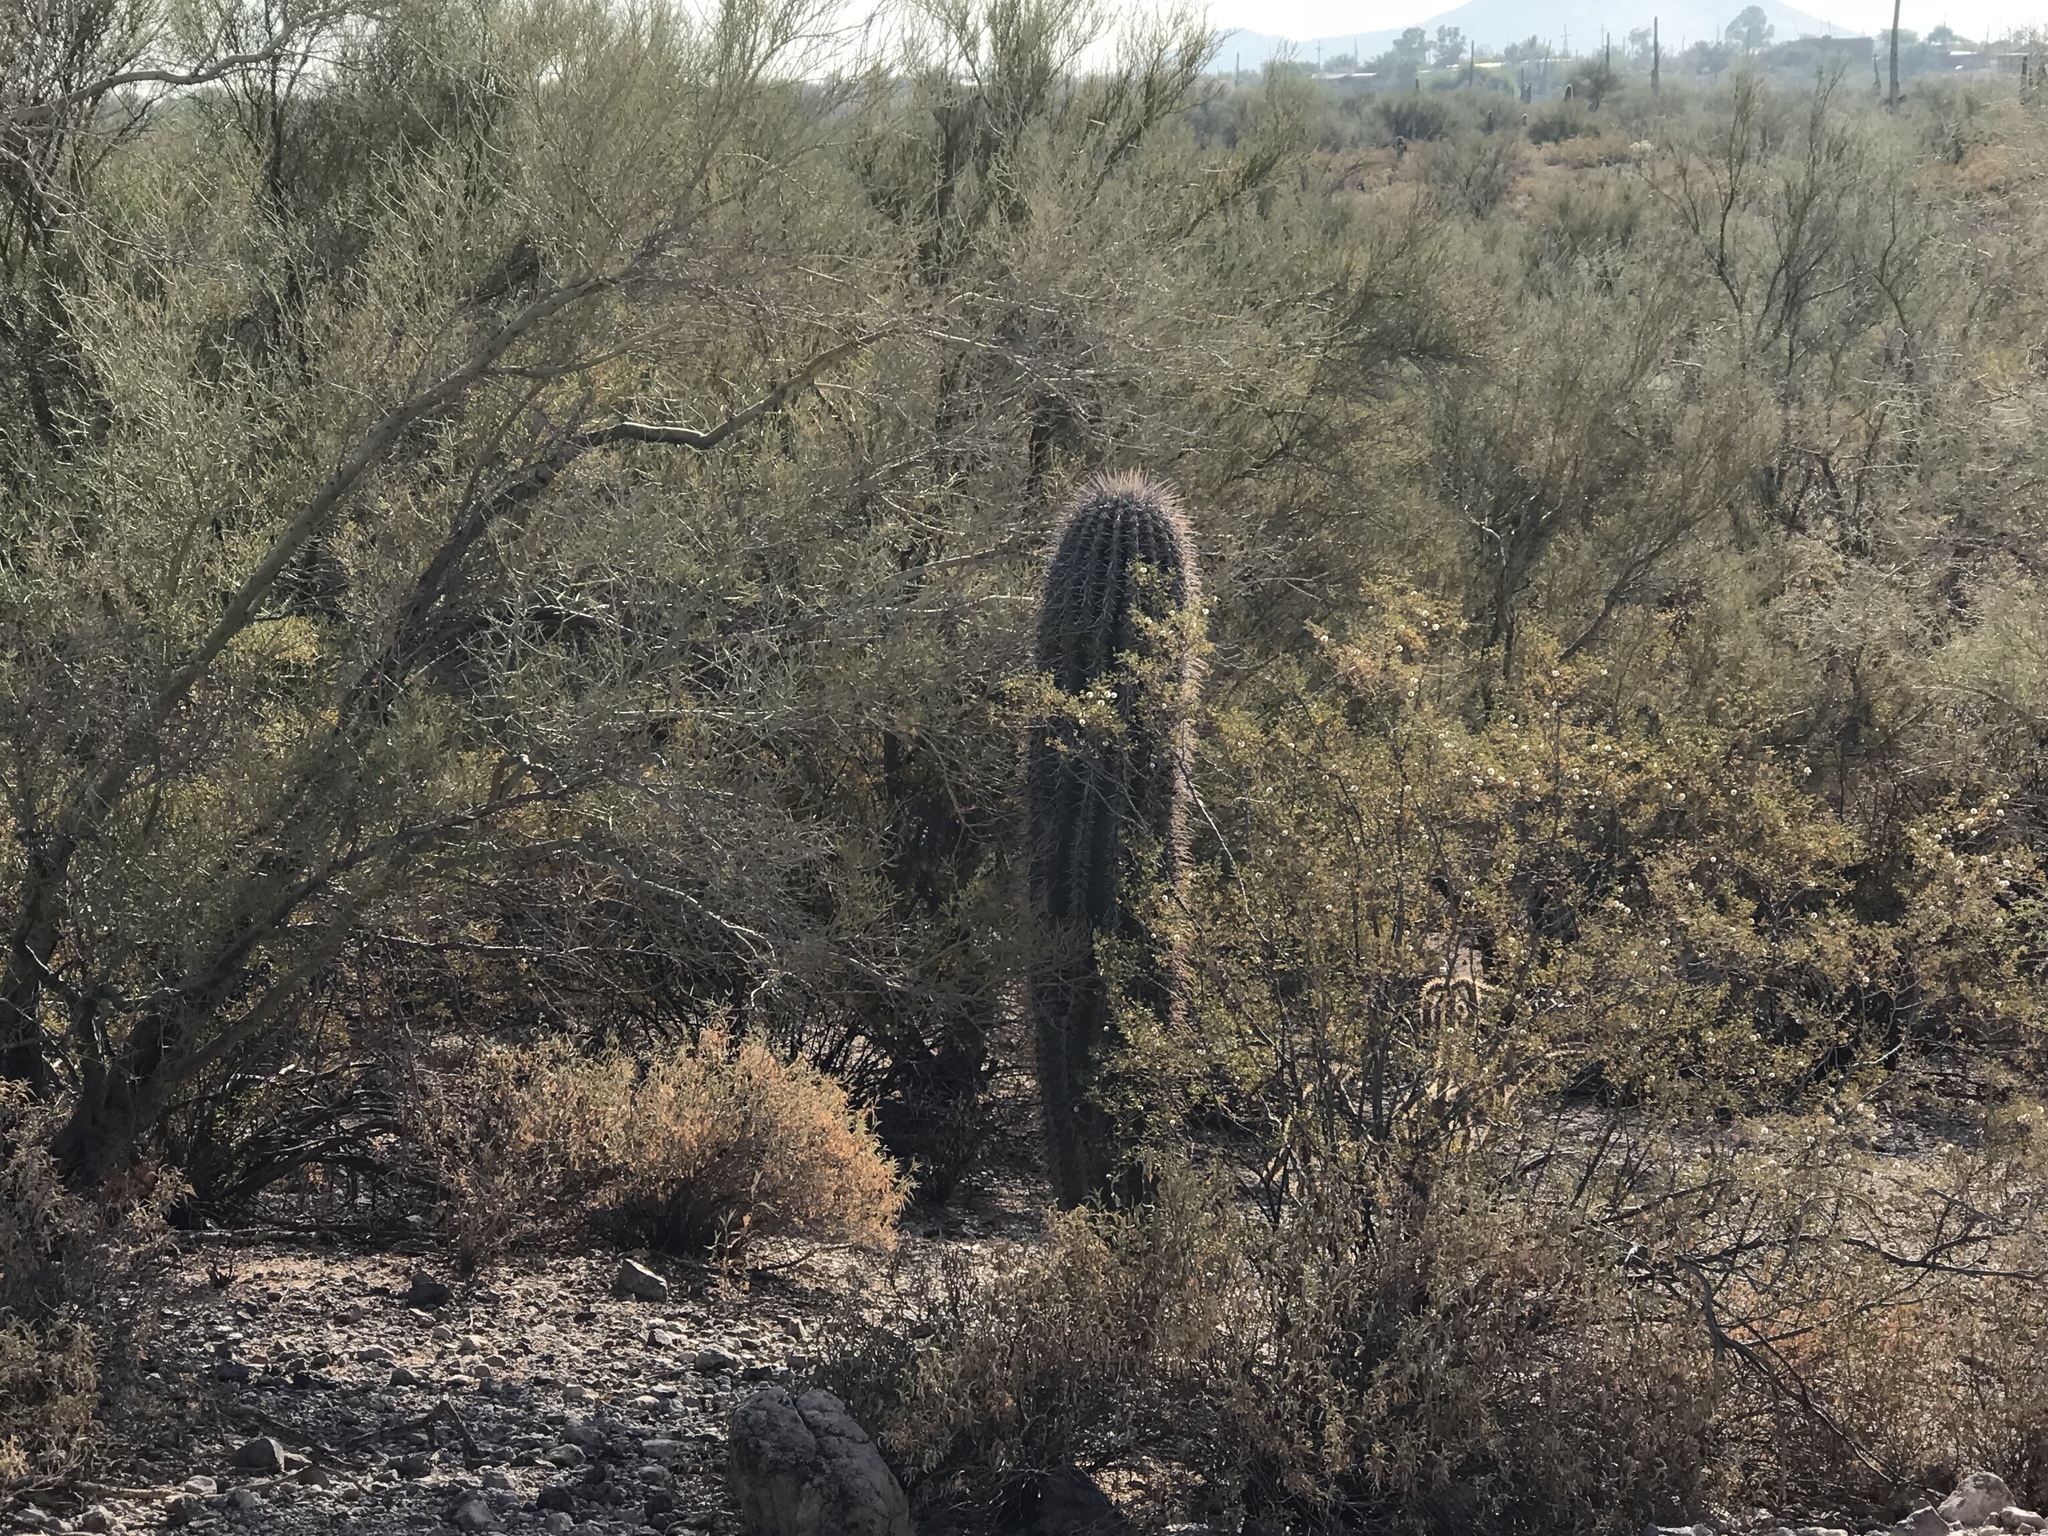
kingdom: Plantae
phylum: Tracheophyta
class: Magnoliopsida
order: Caryophyllales
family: Cactaceae
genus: Carnegiea
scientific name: Carnegiea gigantea
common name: Saguaro
